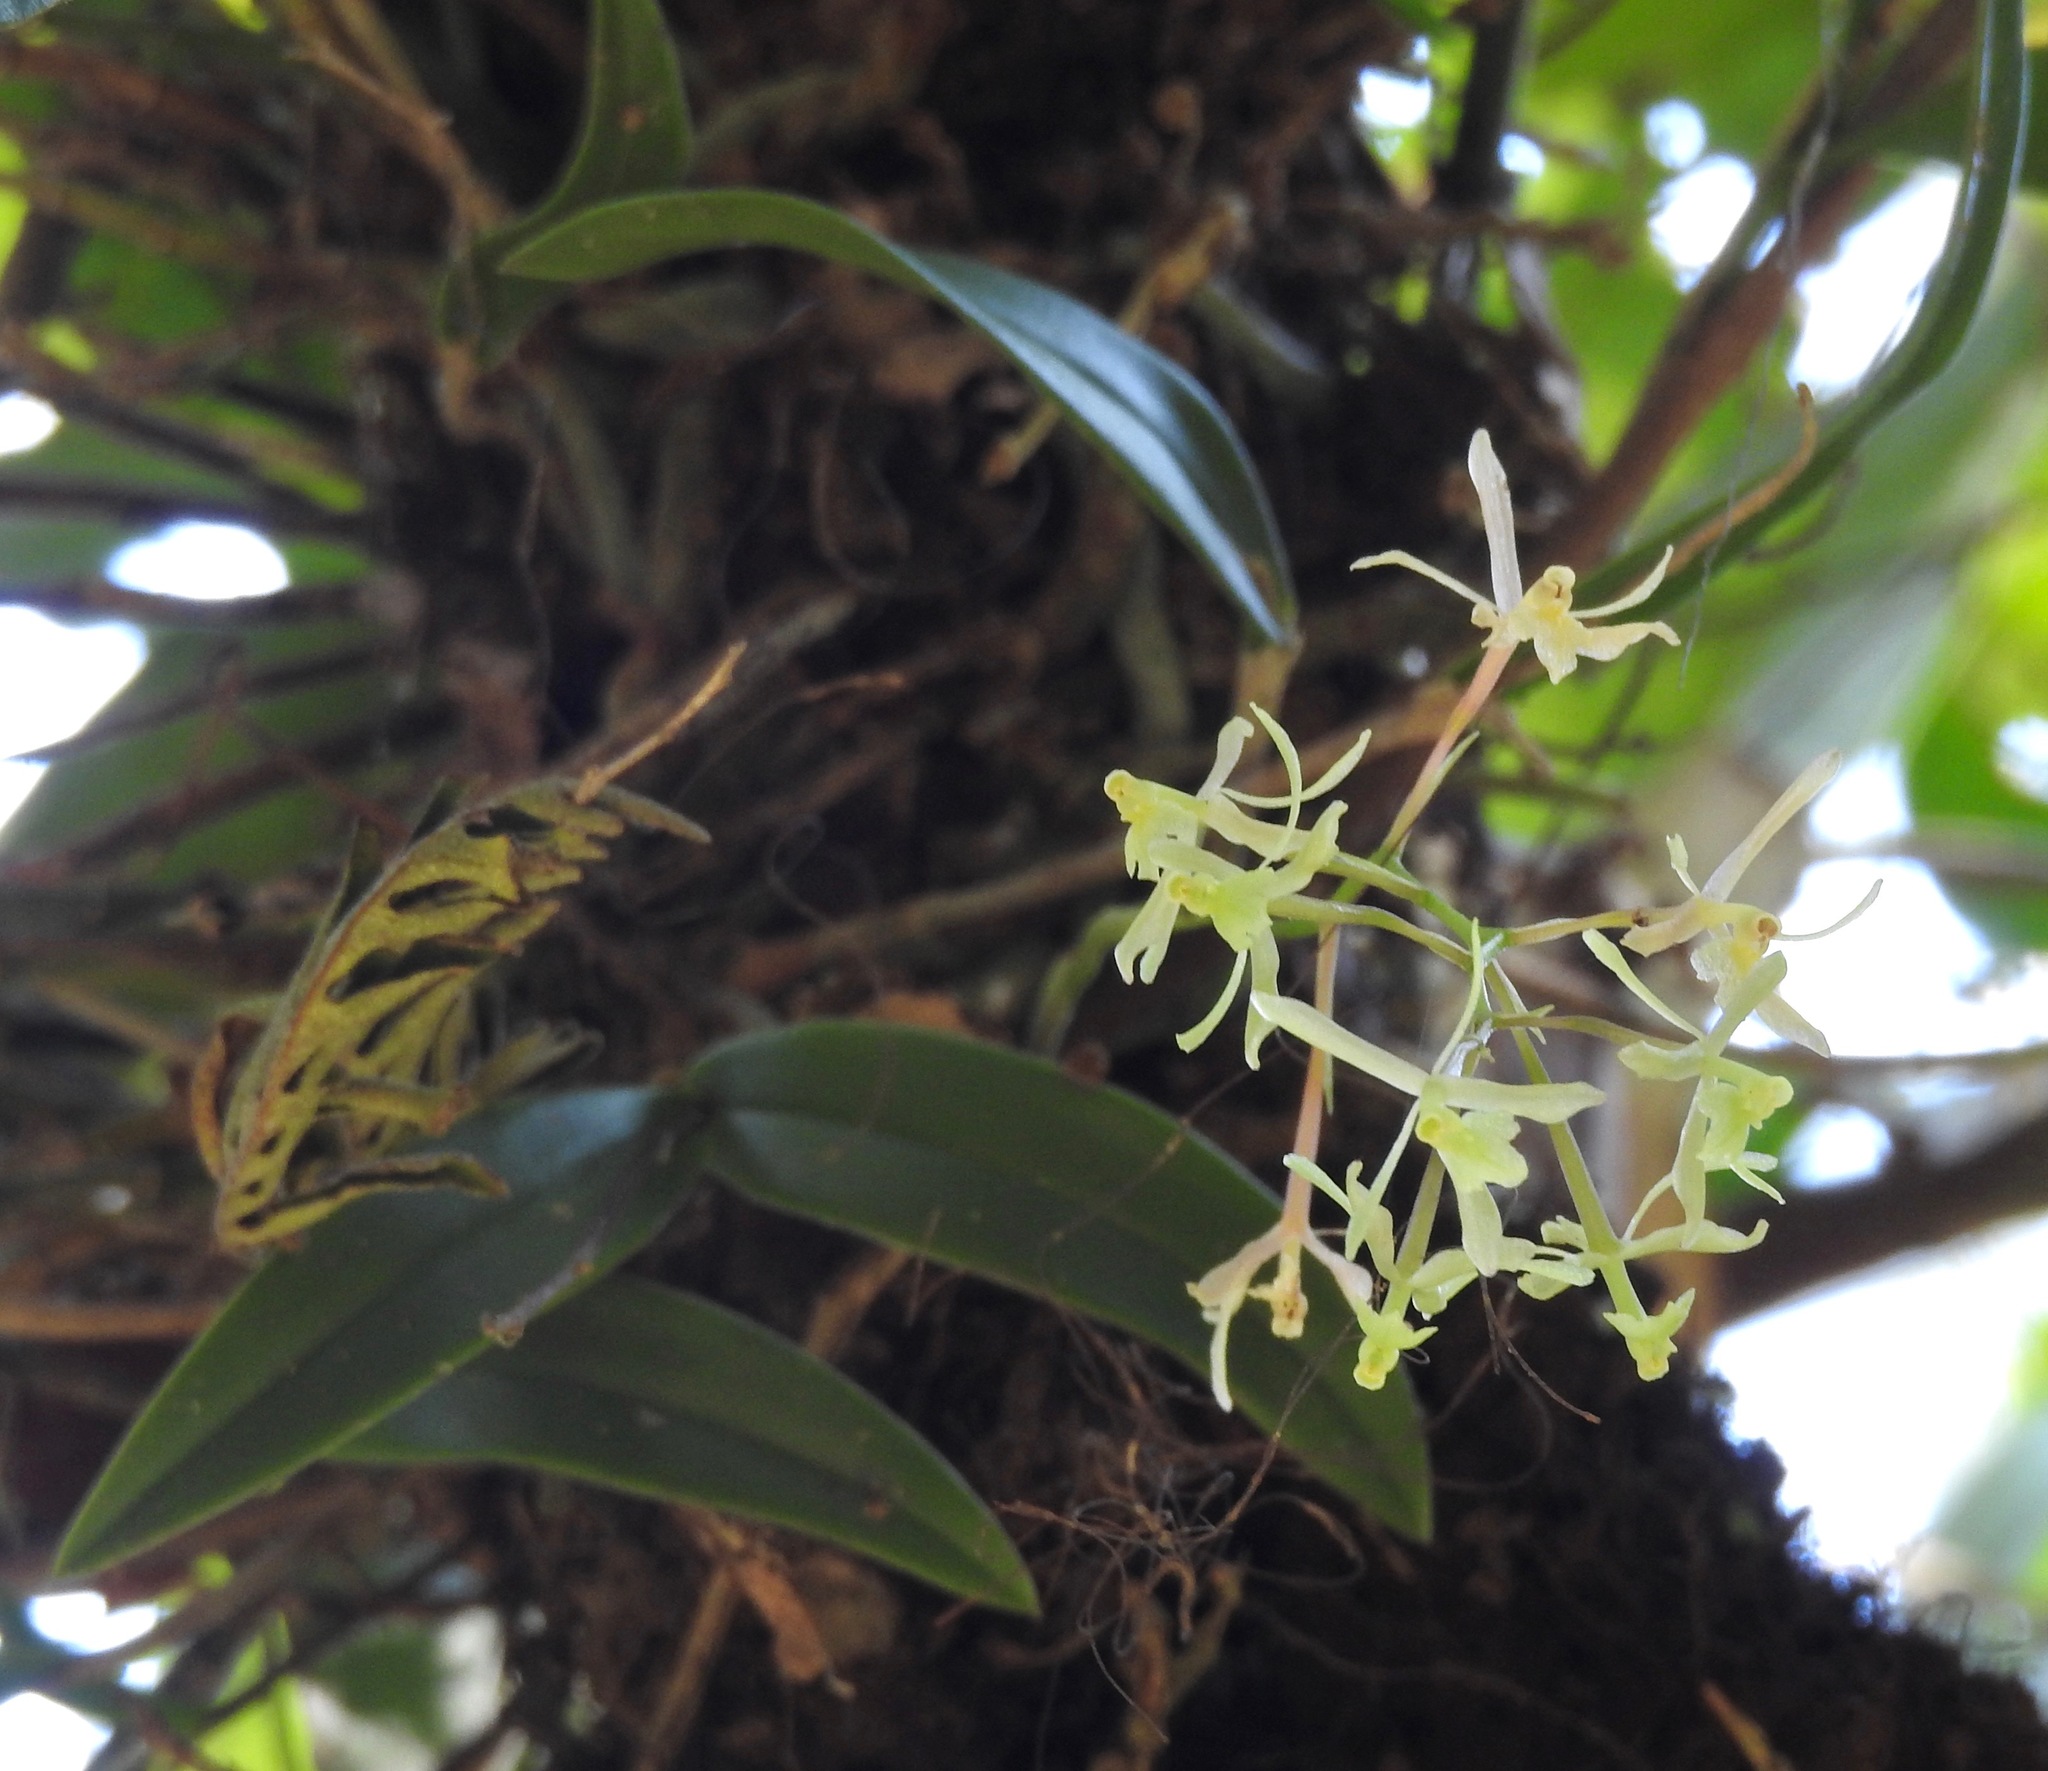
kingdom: Plantae
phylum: Tracheophyta
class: Liliopsida
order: Asparagales
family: Orchidaceae
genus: Epidendrum
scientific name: Epidendrum conopseum
